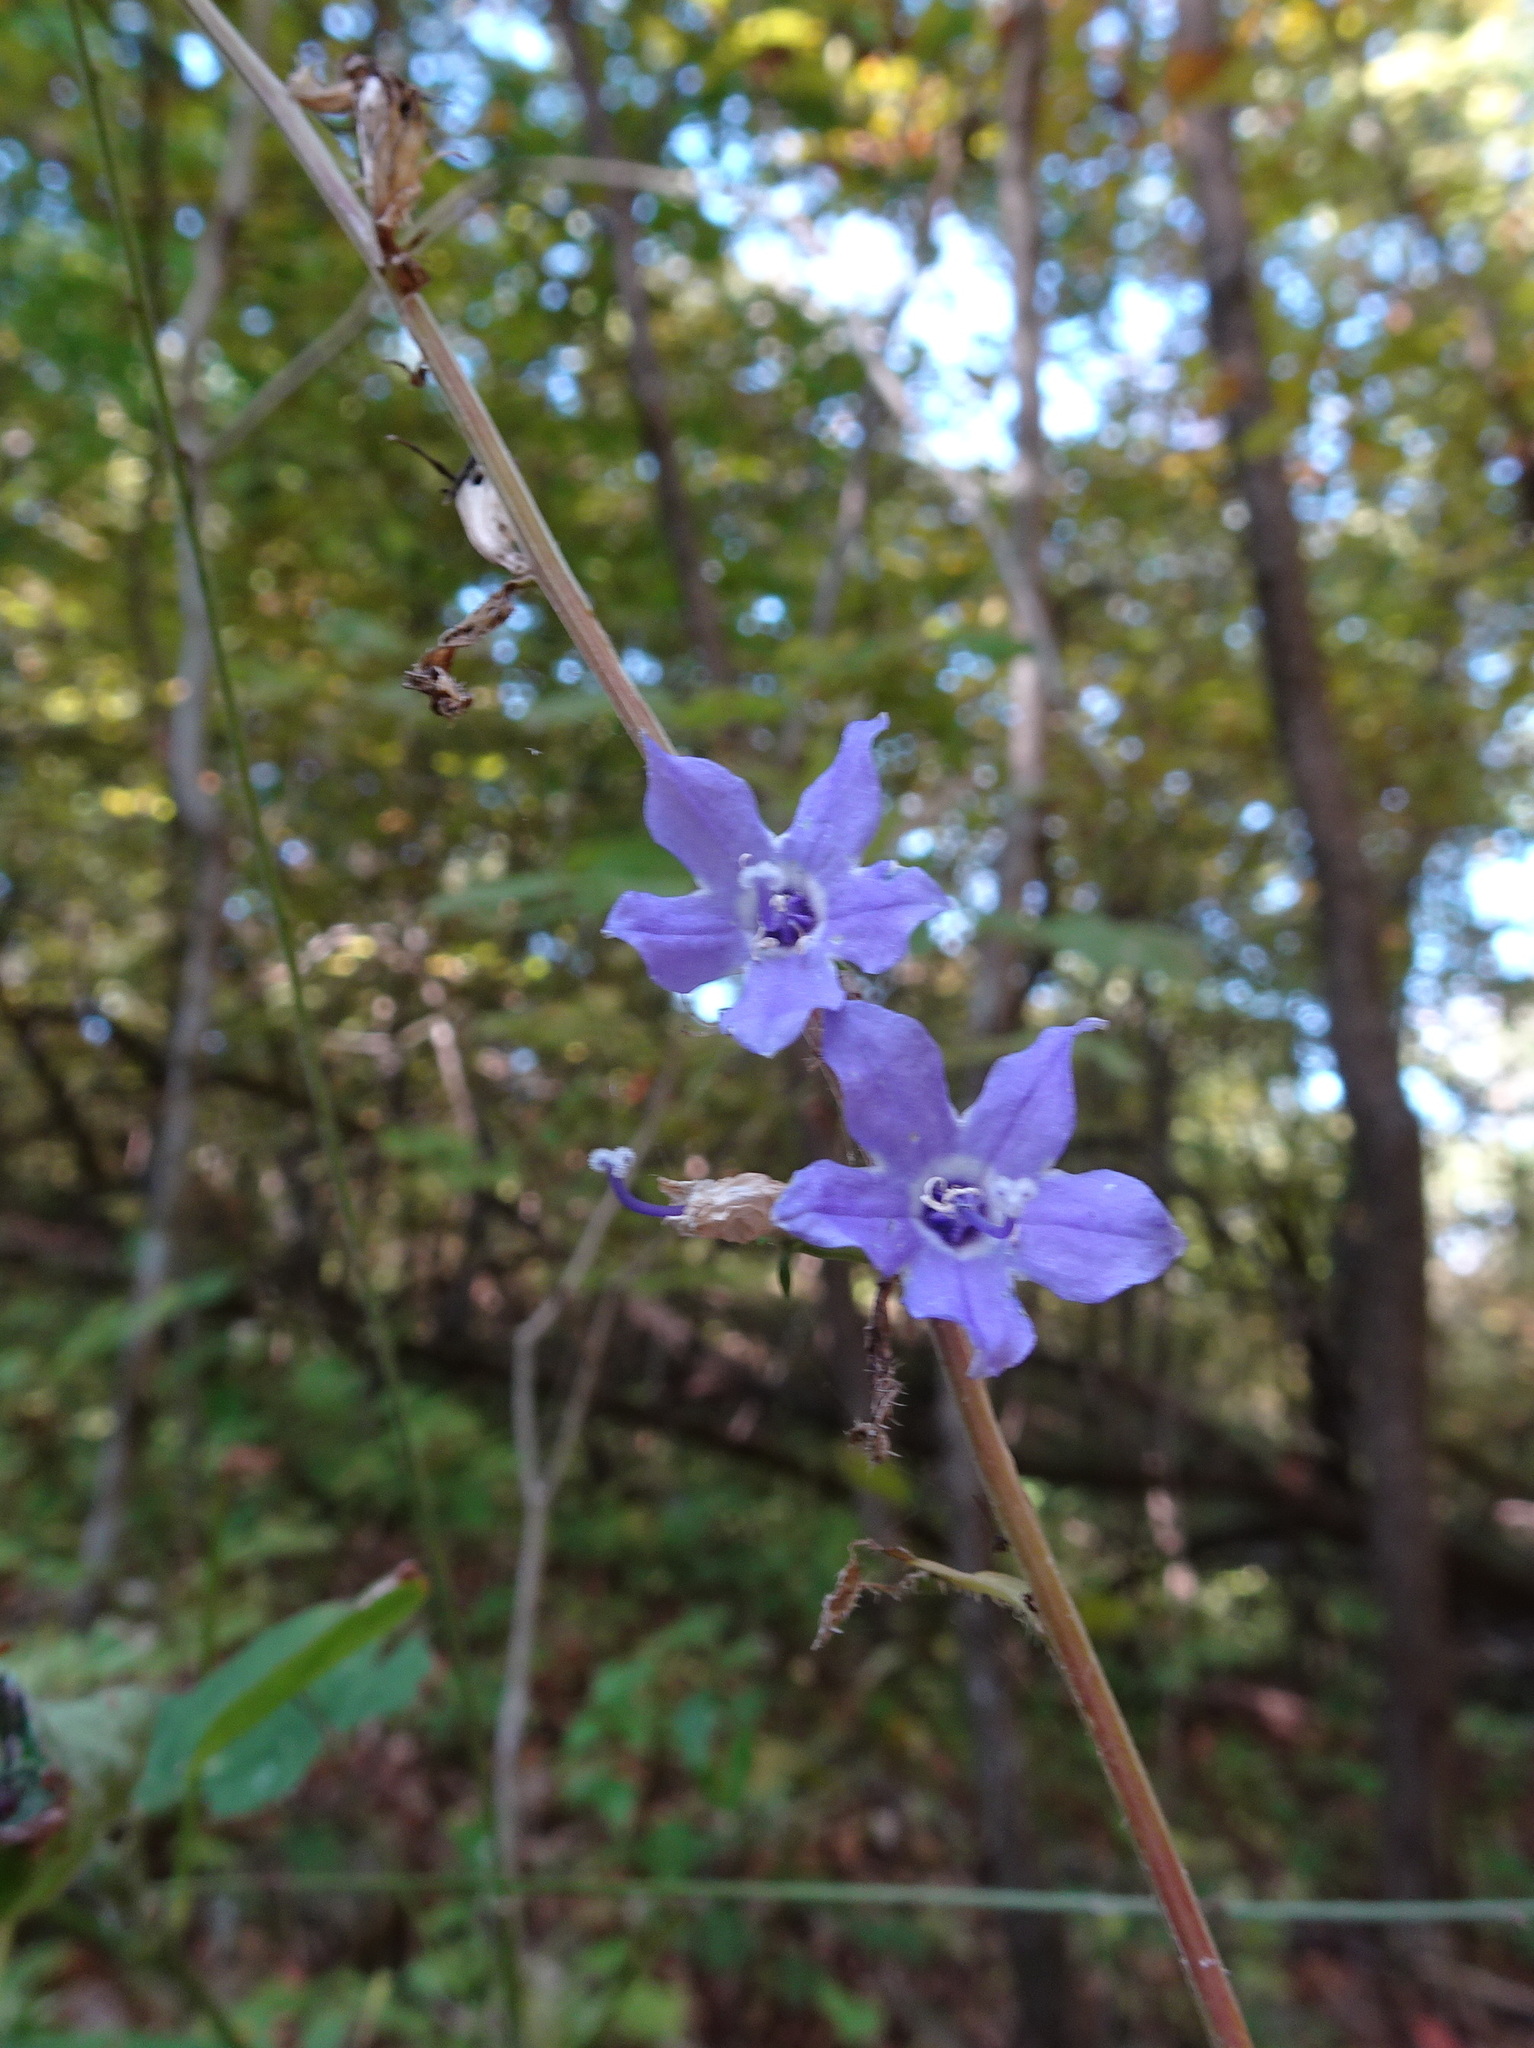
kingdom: Plantae
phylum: Tracheophyta
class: Magnoliopsida
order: Asterales
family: Campanulaceae
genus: Campanulastrum
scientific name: Campanulastrum americanum
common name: American bellflower
